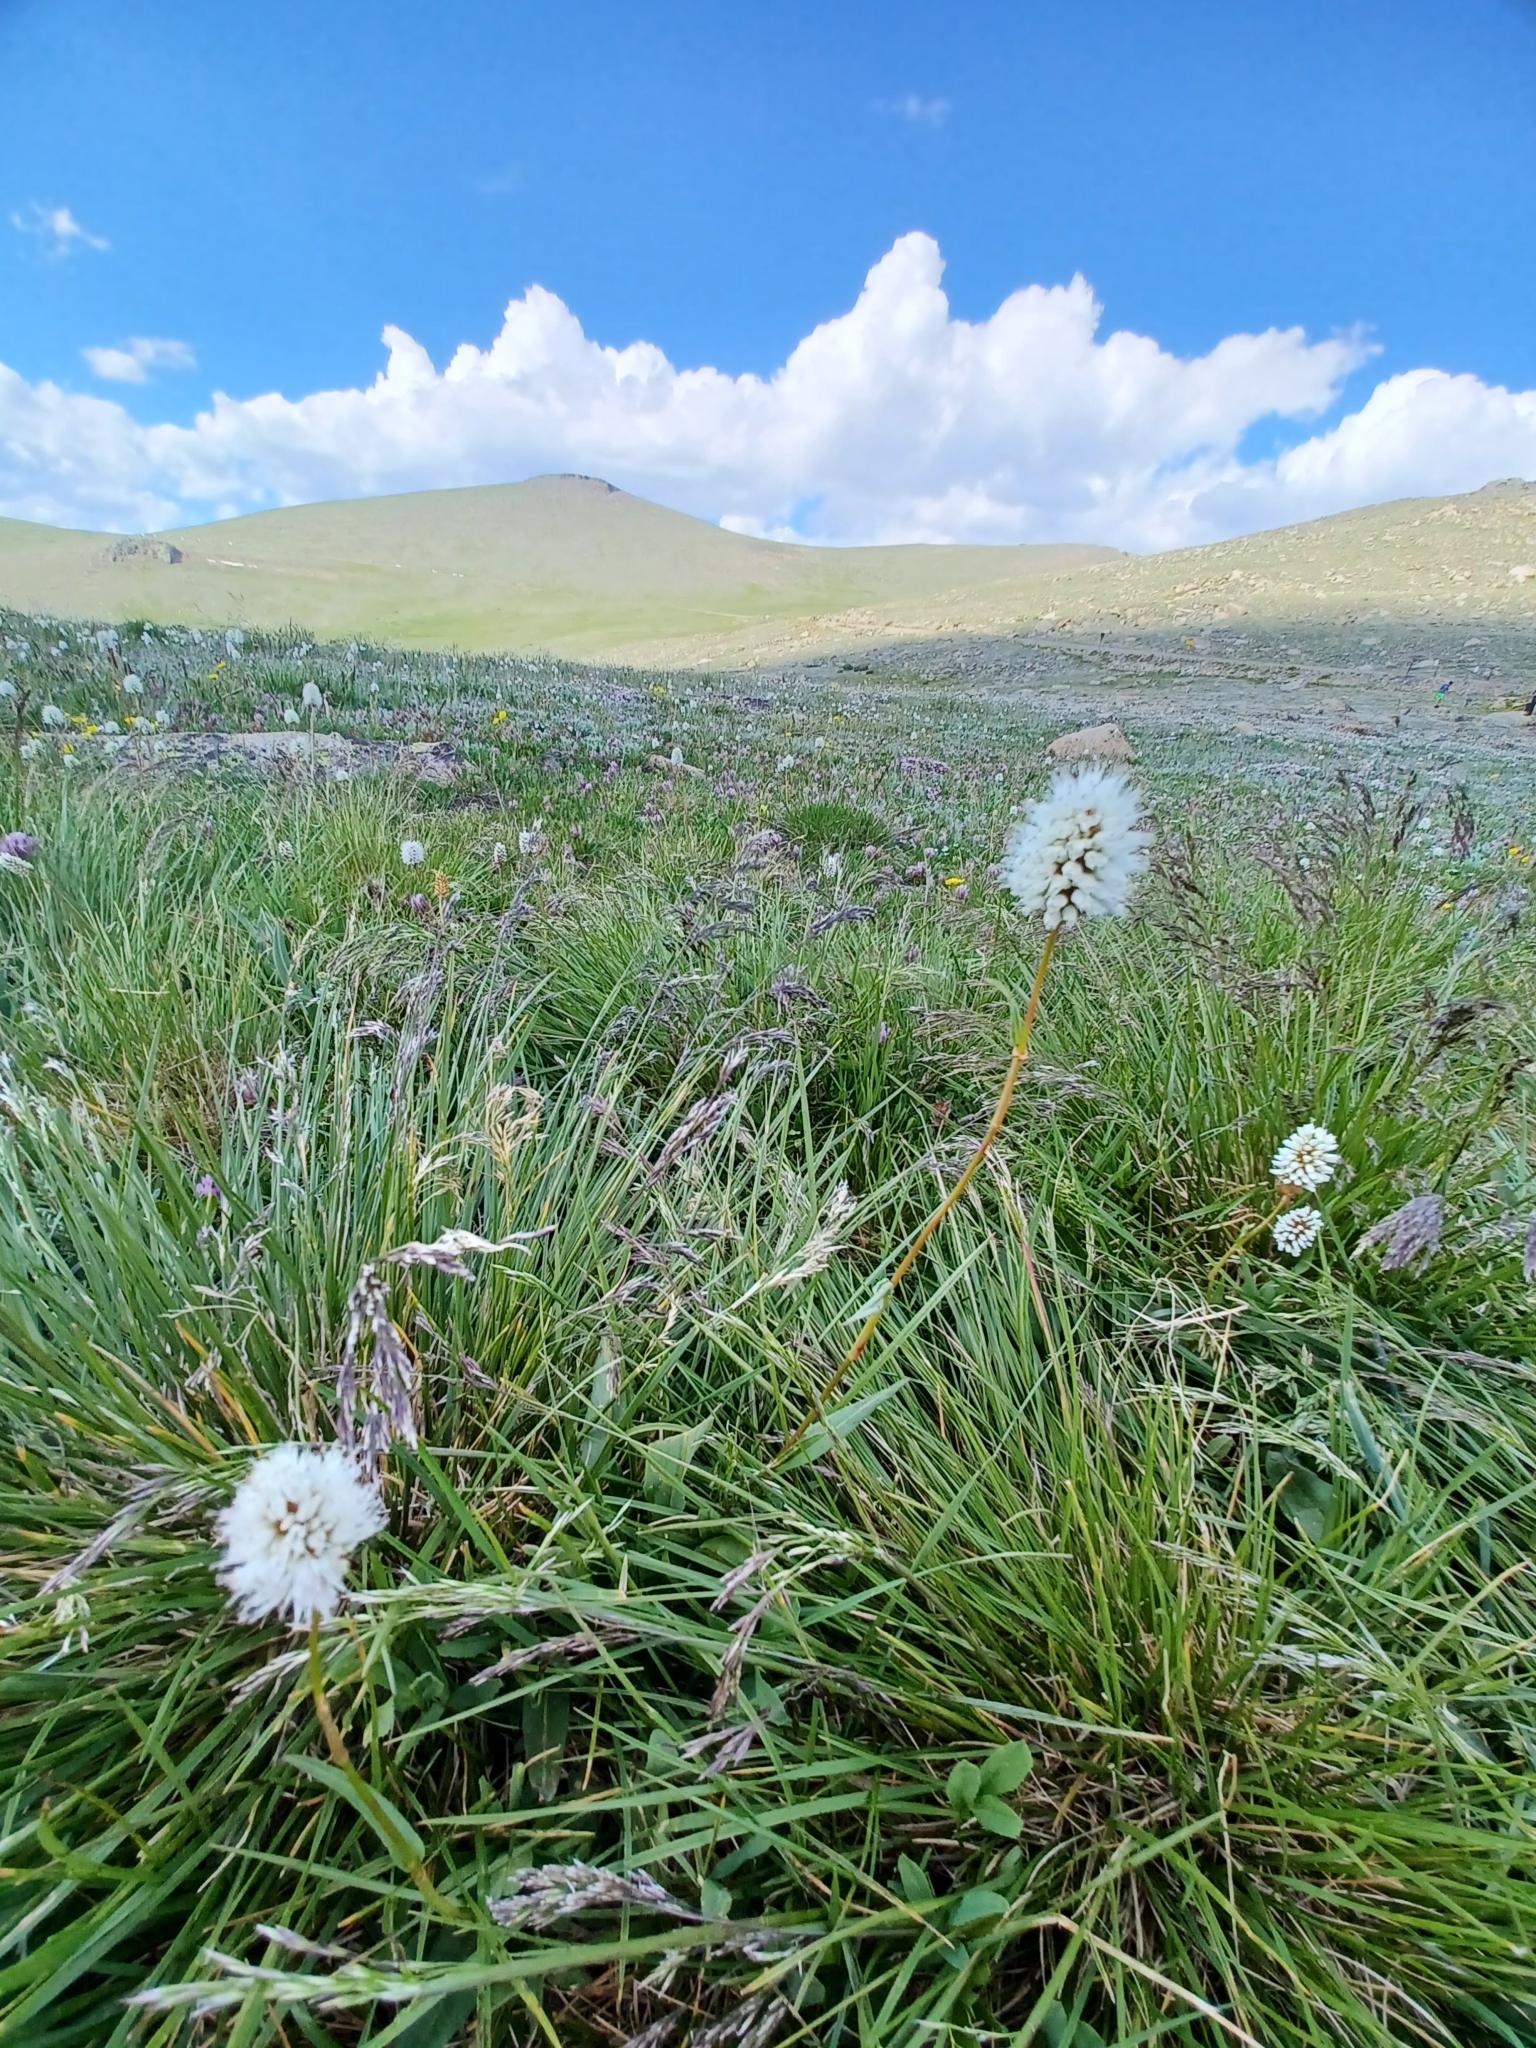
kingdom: Plantae
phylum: Tracheophyta
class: Magnoliopsida
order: Caryophyllales
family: Polygonaceae
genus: Bistorta
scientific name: Bistorta bistortoides
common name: American bistort
